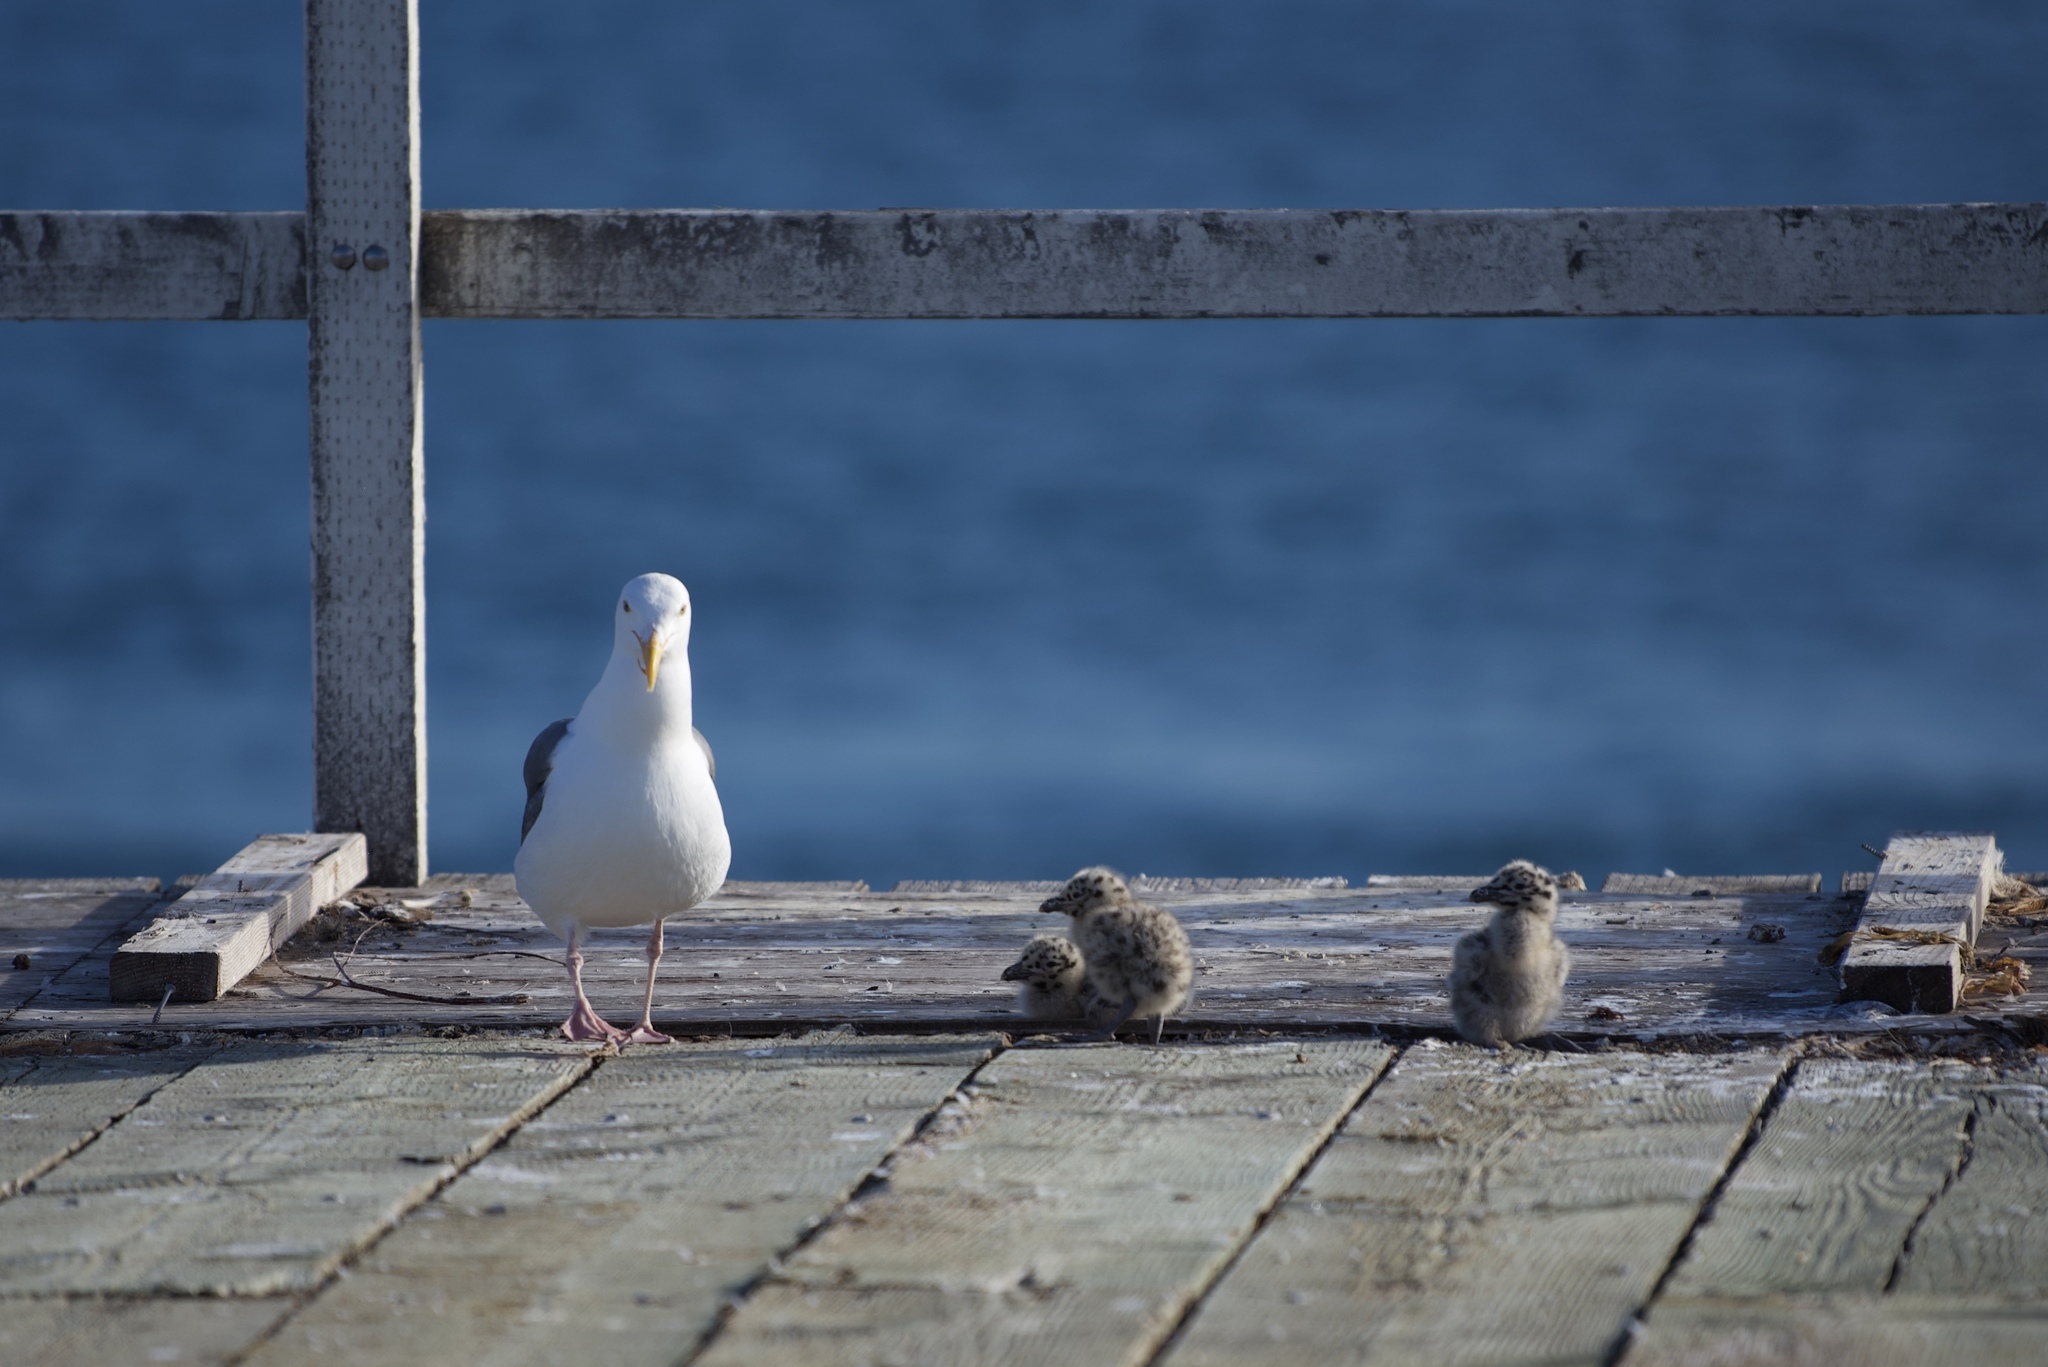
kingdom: Animalia
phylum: Chordata
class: Aves
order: Charadriiformes
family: Laridae
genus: Larus
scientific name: Larus occidentalis
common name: Western gull
